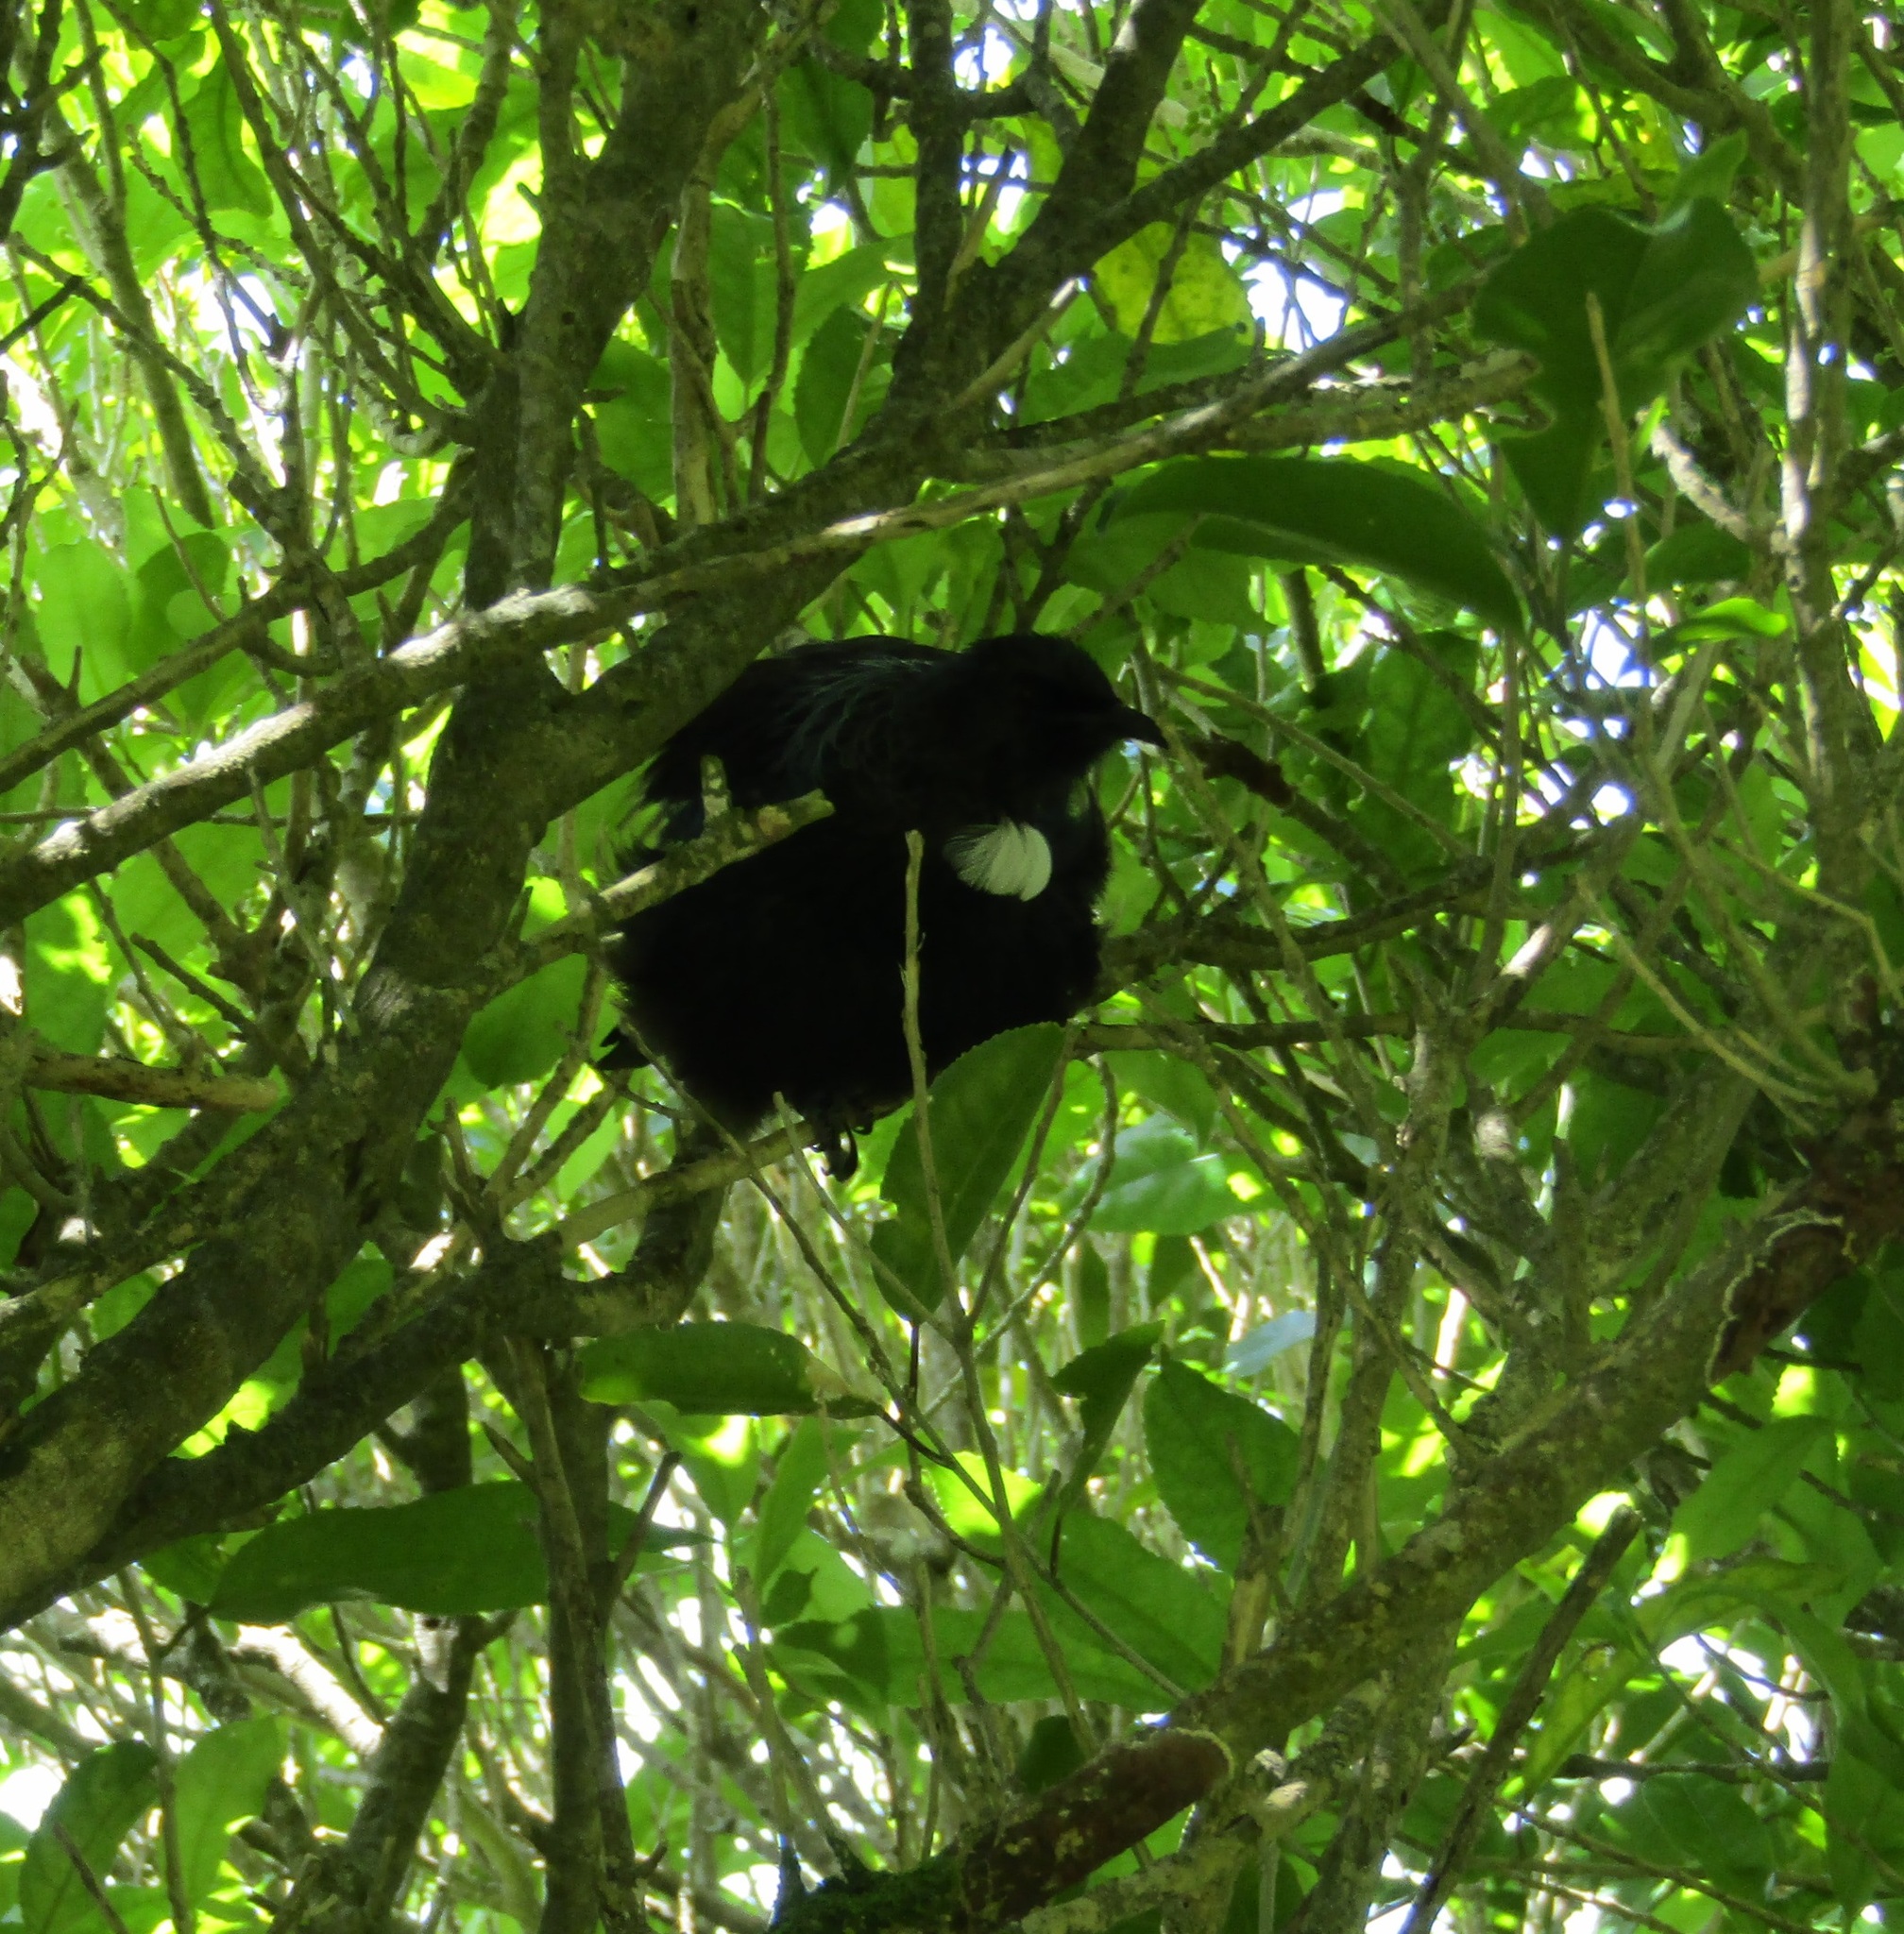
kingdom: Animalia
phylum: Chordata
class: Aves
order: Passeriformes
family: Meliphagidae
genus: Prosthemadera
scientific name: Prosthemadera novaeseelandiae
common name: Tui
